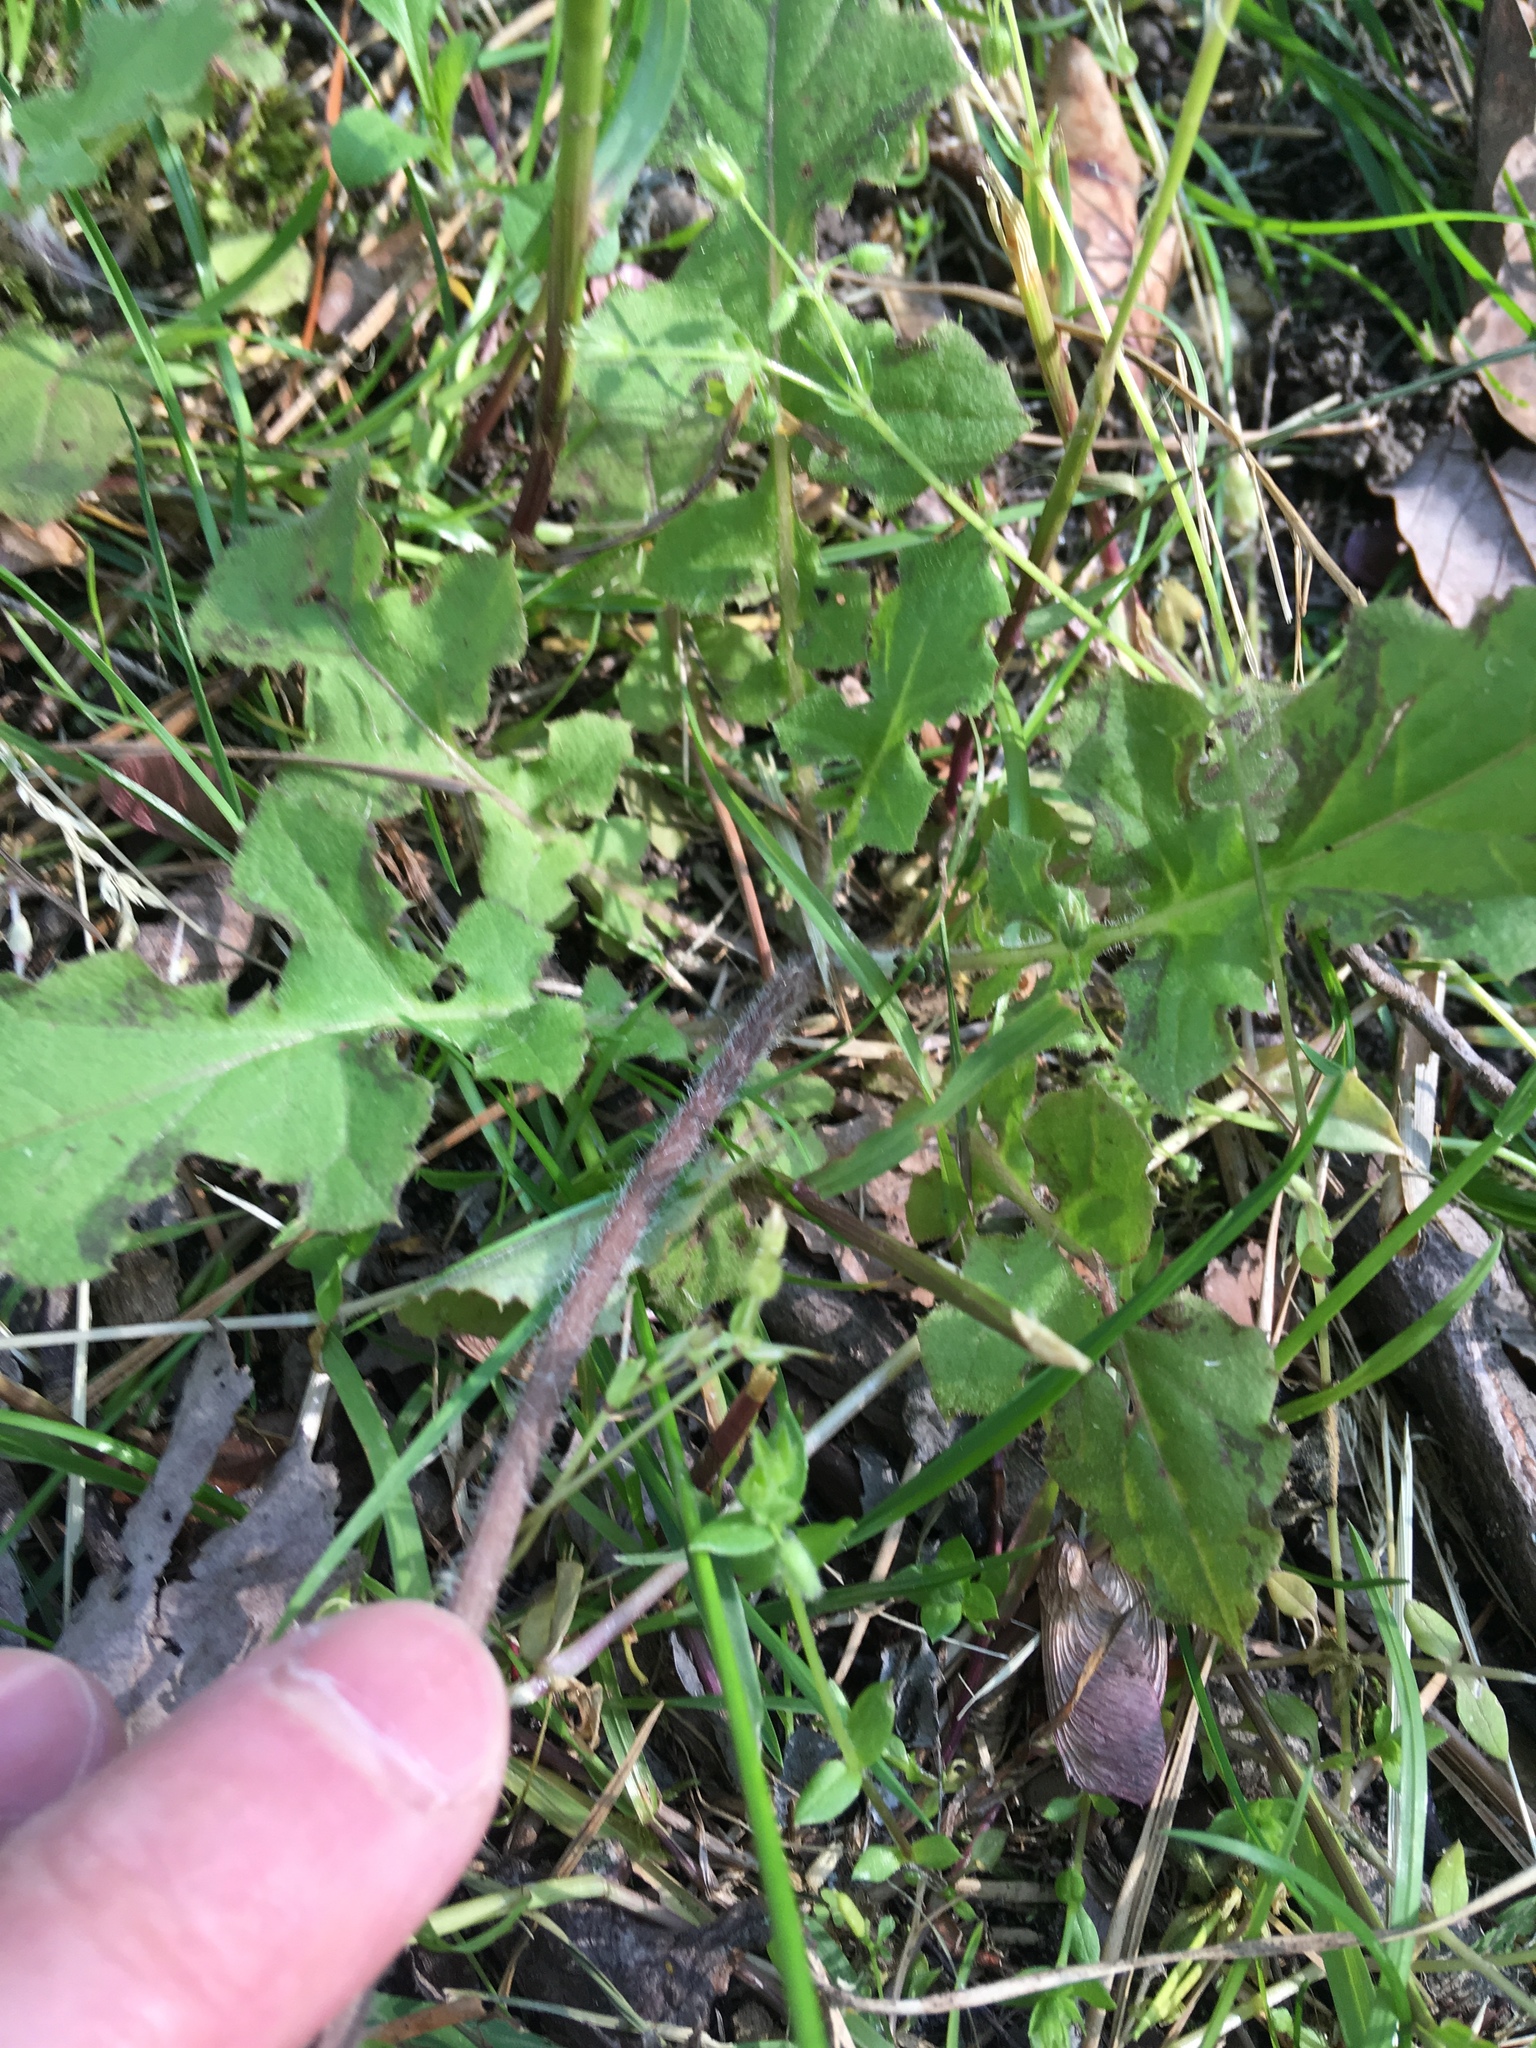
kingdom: Plantae
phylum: Tracheophyta
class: Magnoliopsida
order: Asterales
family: Asteraceae
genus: Youngia
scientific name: Youngia japonica
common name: Oriental false hawksbeard
